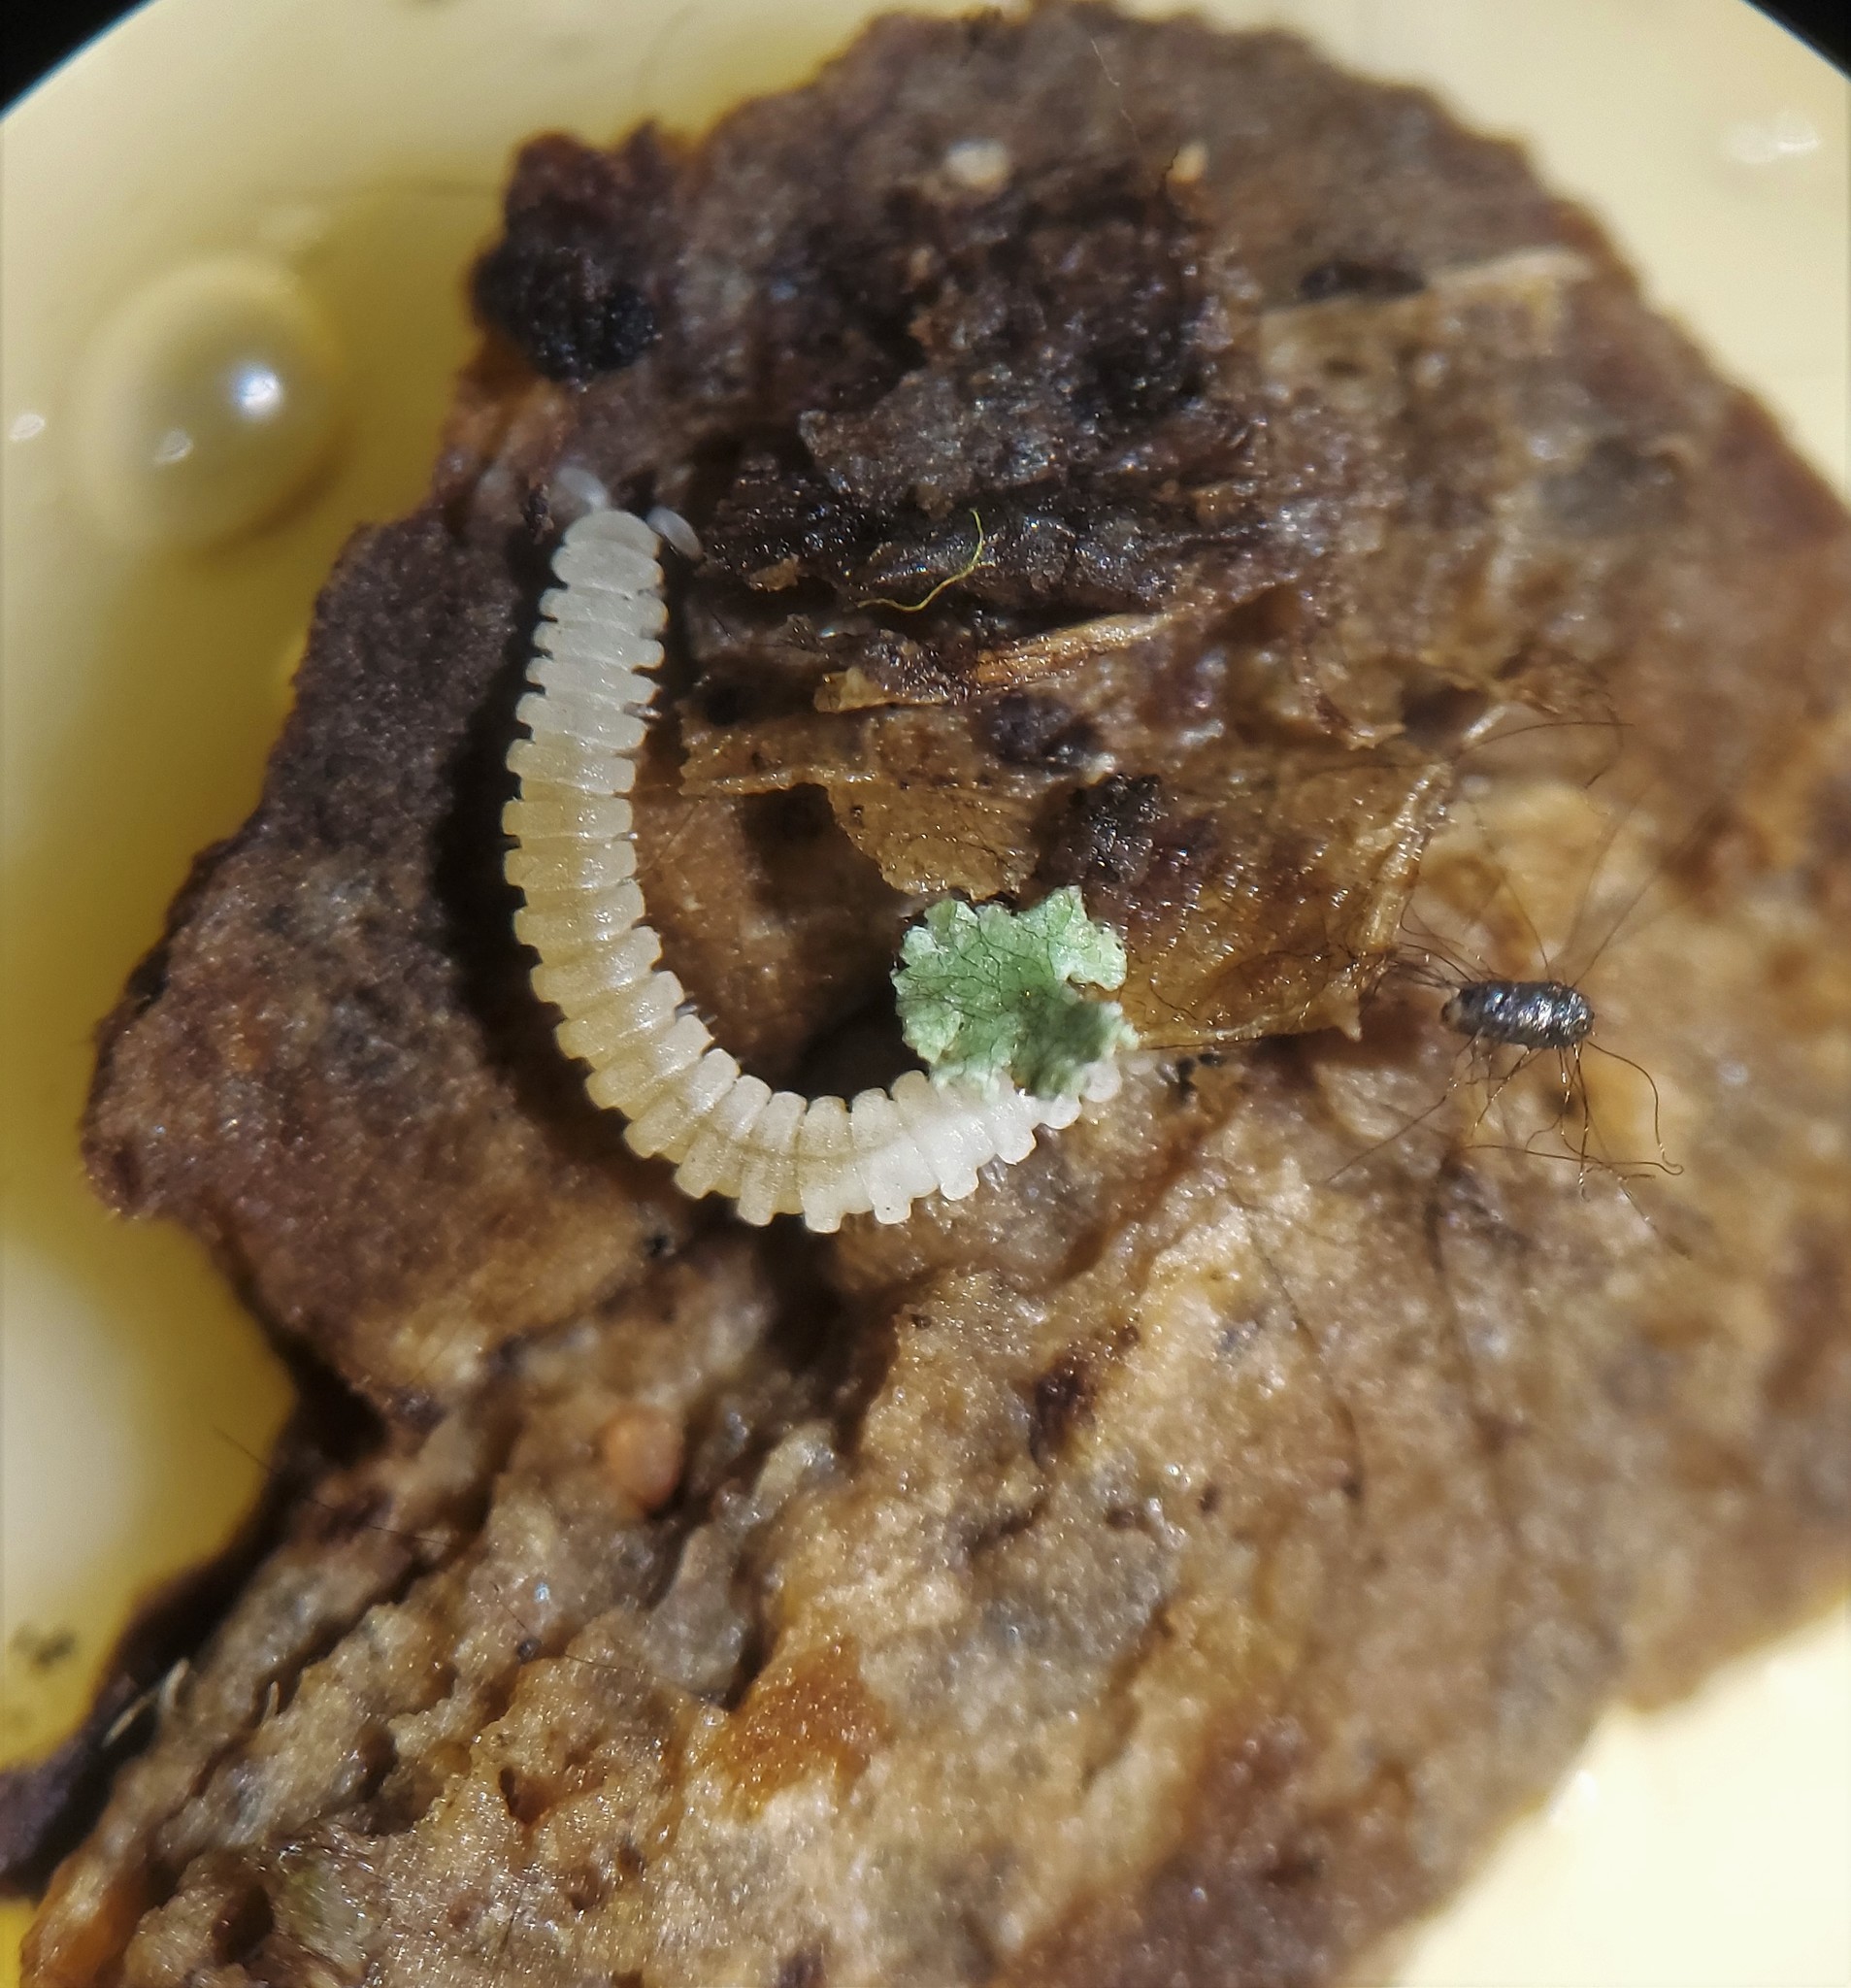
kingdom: Animalia
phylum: Arthropoda
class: Diplopoda
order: Chordeumatida
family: Buotidae
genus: Buotus
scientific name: Buotus carolinus
